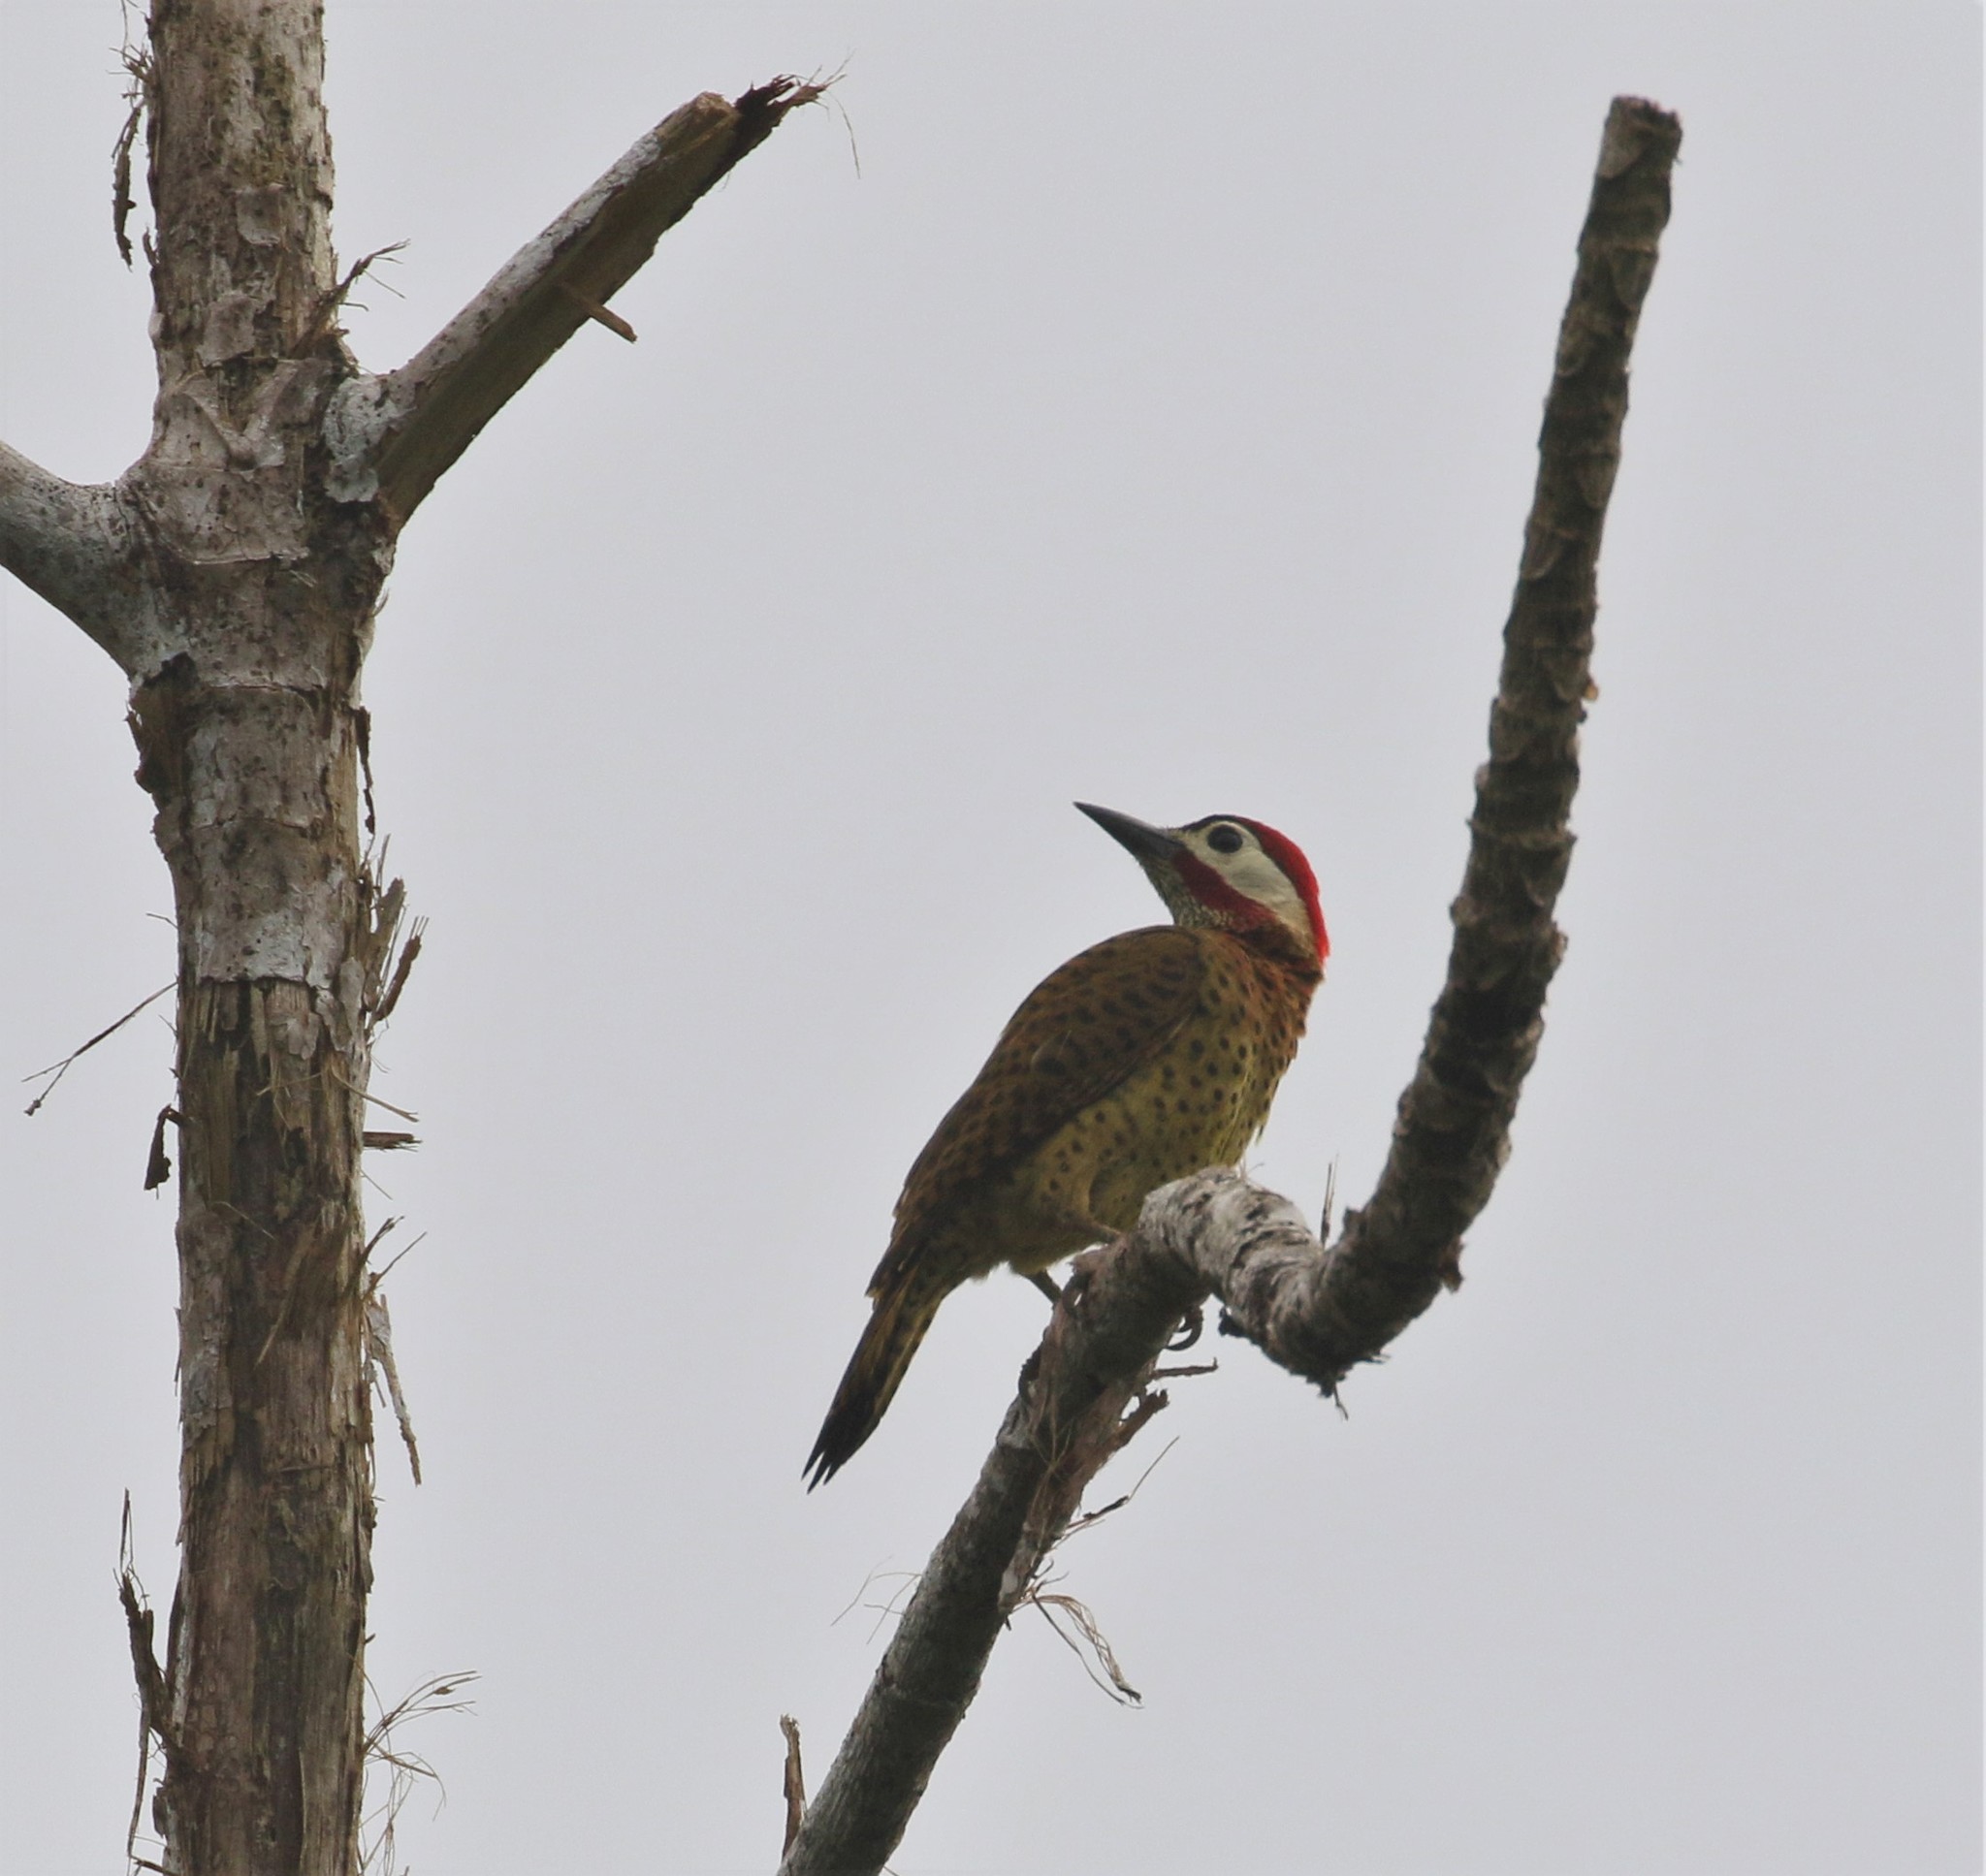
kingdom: Animalia
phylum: Chordata
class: Aves
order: Piciformes
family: Picidae
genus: Colaptes
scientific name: Colaptes punctigula
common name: Spot-breasted woodpecker
